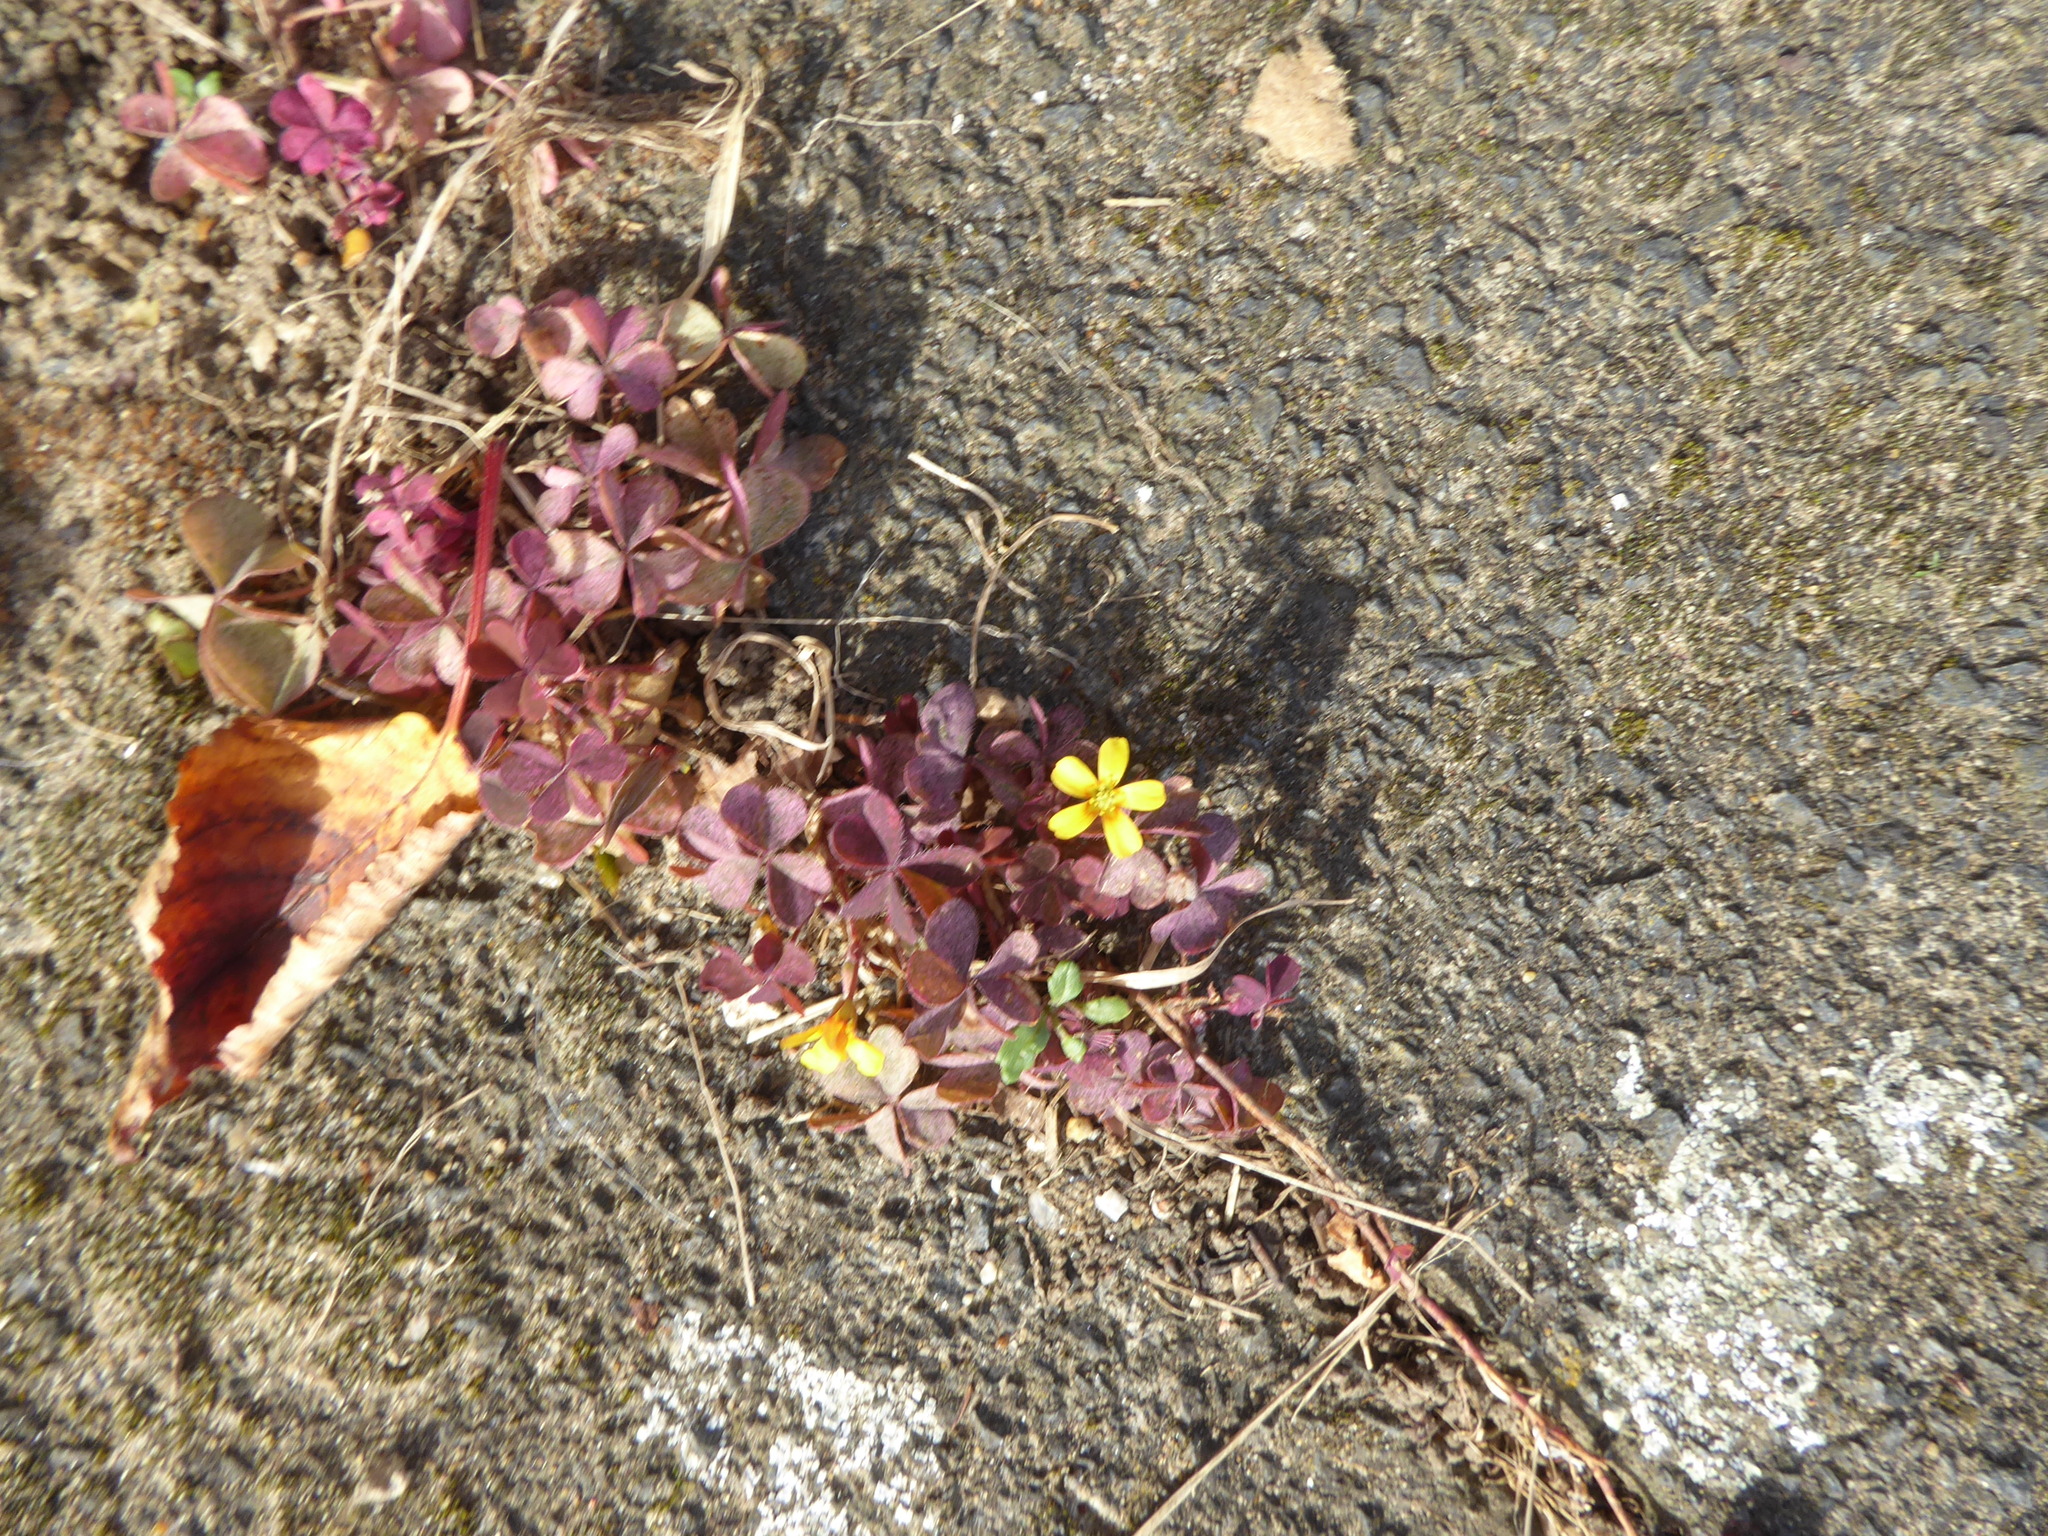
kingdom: Plantae
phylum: Tracheophyta
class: Magnoliopsida
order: Oxalidales
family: Oxalidaceae
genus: Oxalis
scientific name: Oxalis corniculata
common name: Procumbent yellow-sorrel
